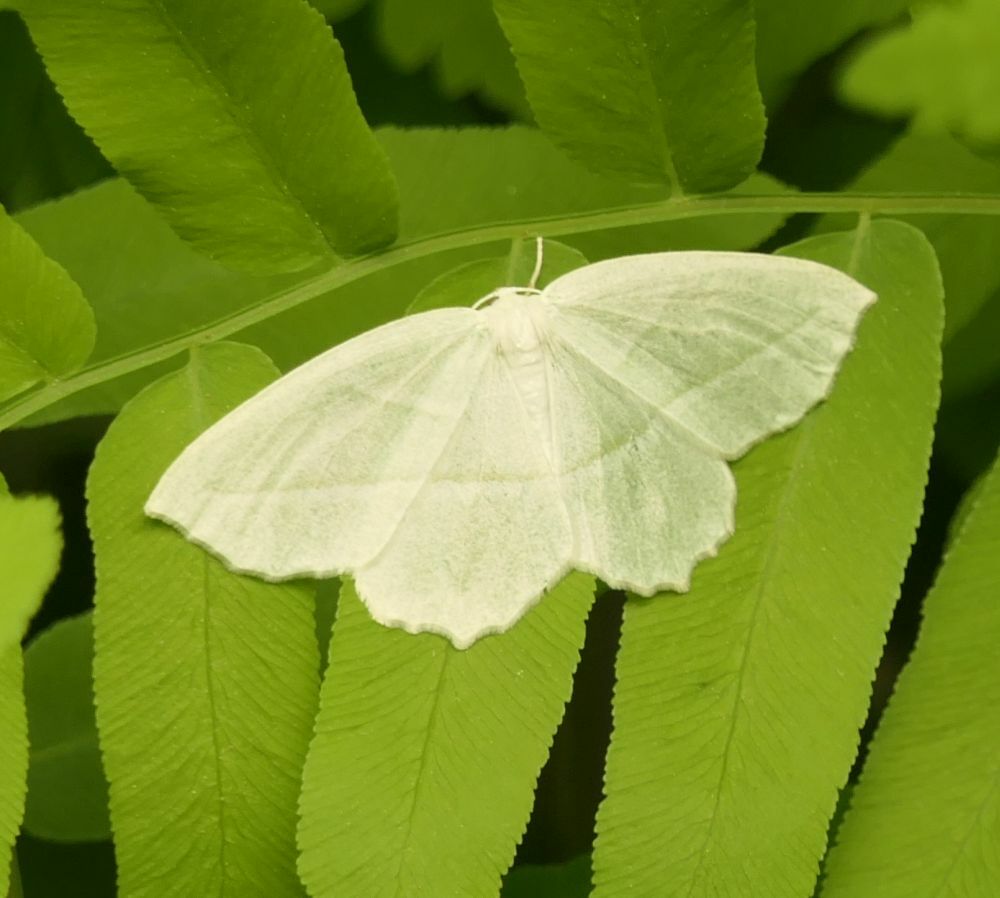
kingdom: Animalia
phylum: Arthropoda
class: Insecta
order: Lepidoptera
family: Geometridae
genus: Campaea
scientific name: Campaea perlata
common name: Fringed looper
